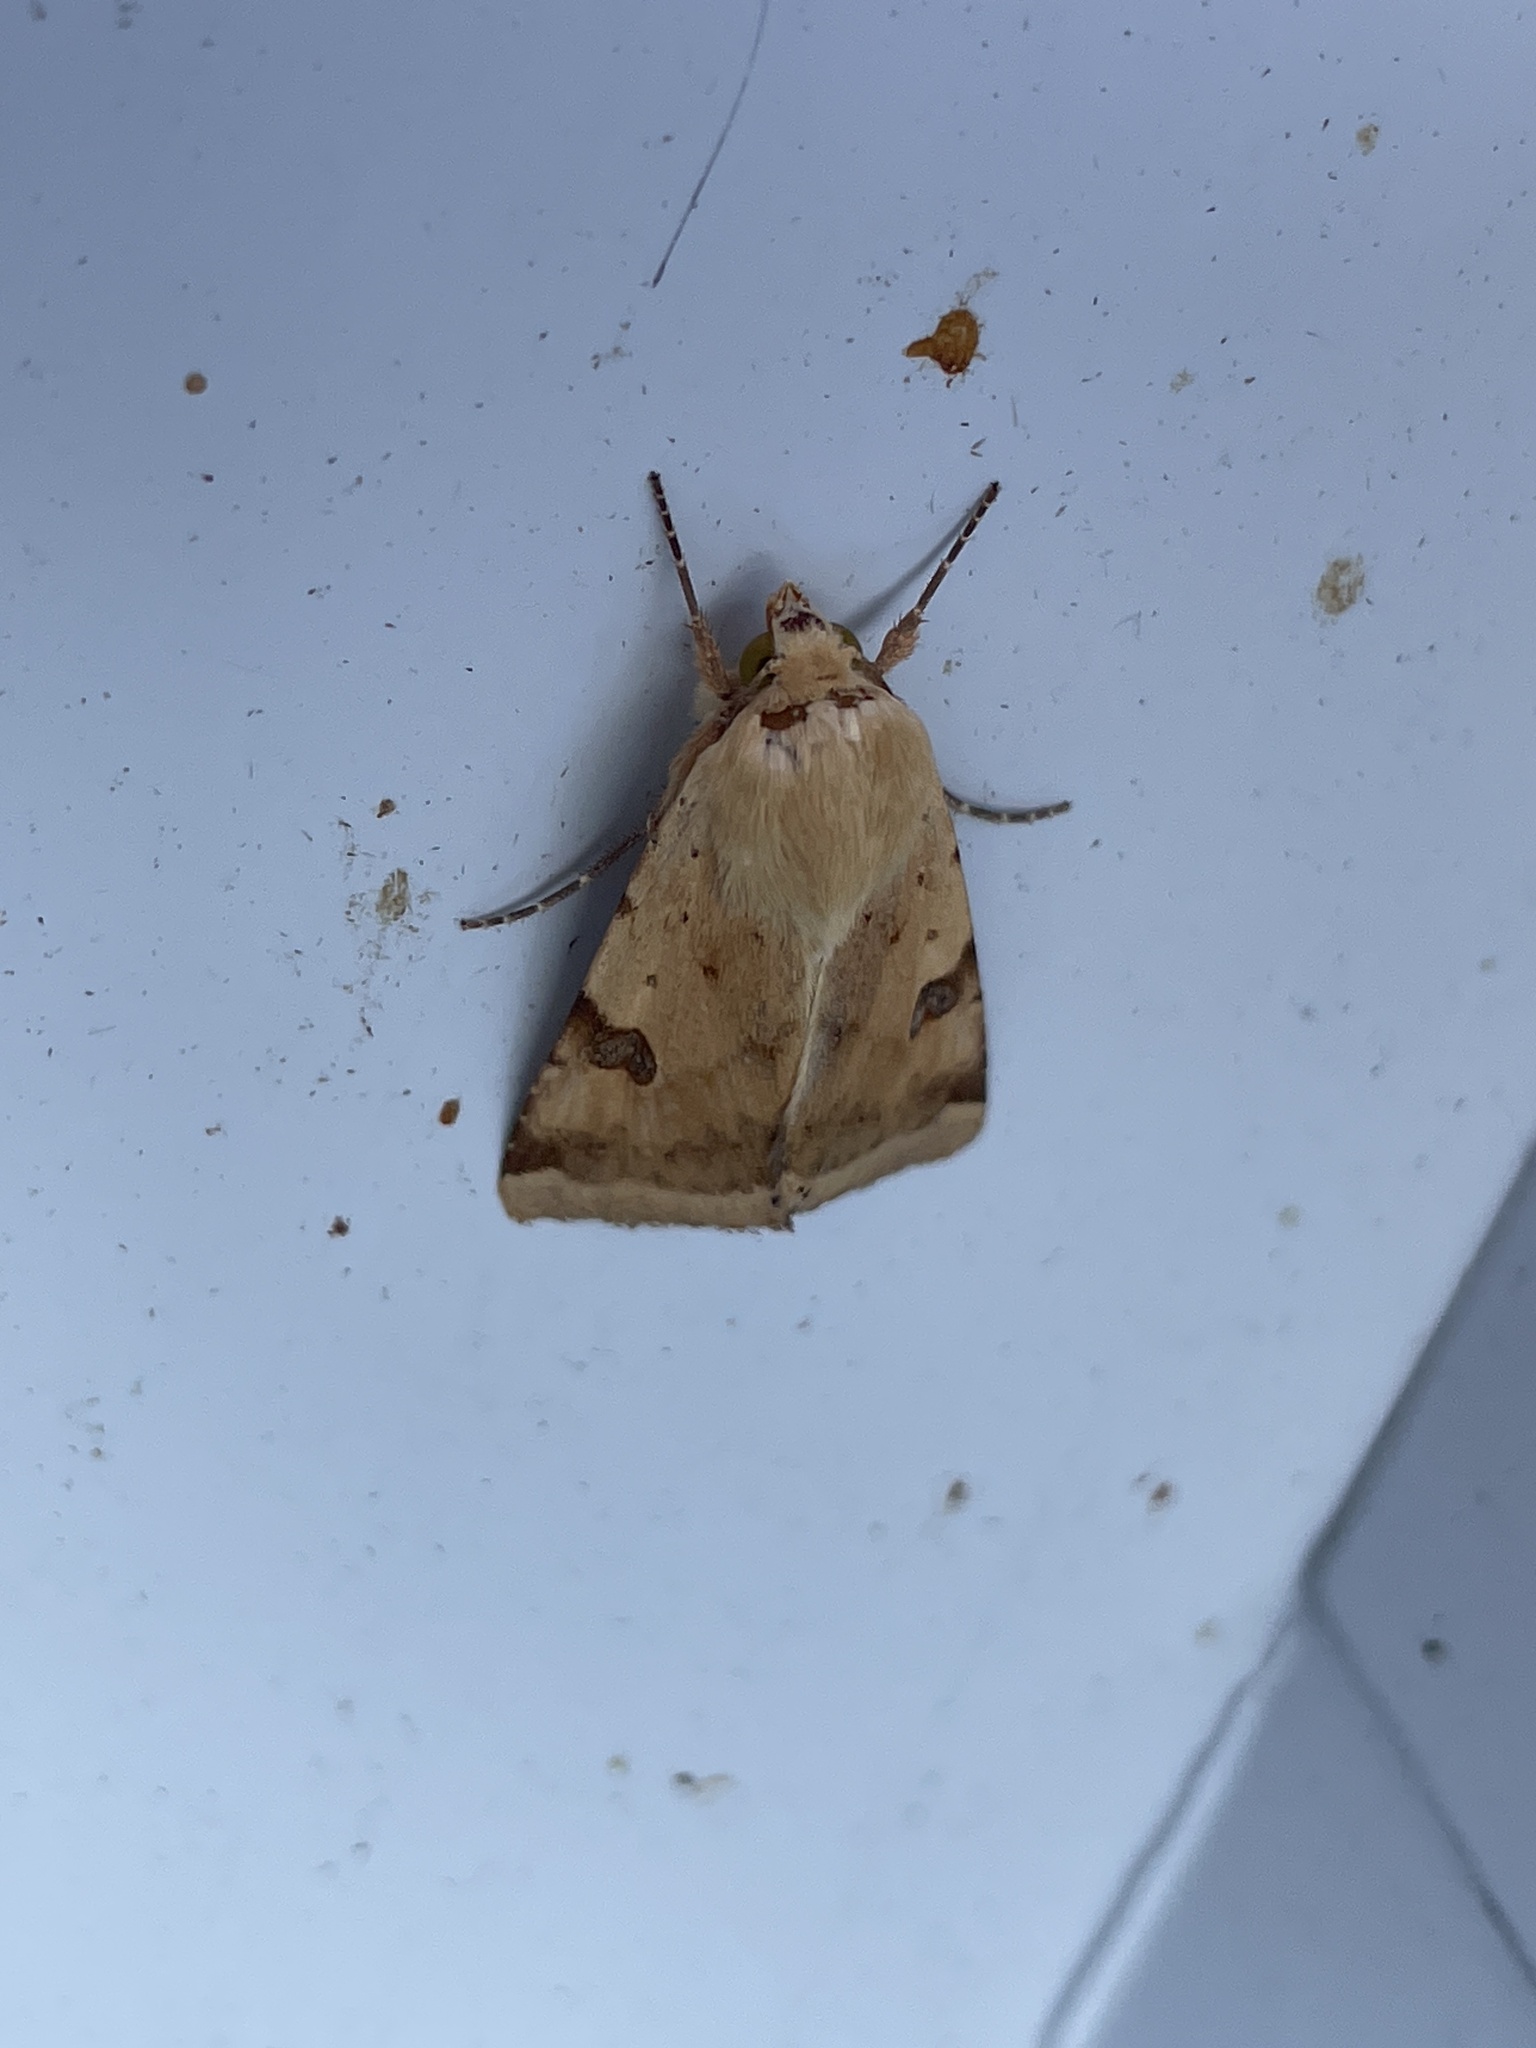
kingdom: Animalia
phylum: Arthropoda
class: Insecta
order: Lepidoptera
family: Noctuidae
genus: Heliothis
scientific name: Heliothis peltigera
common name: Bordered straw
